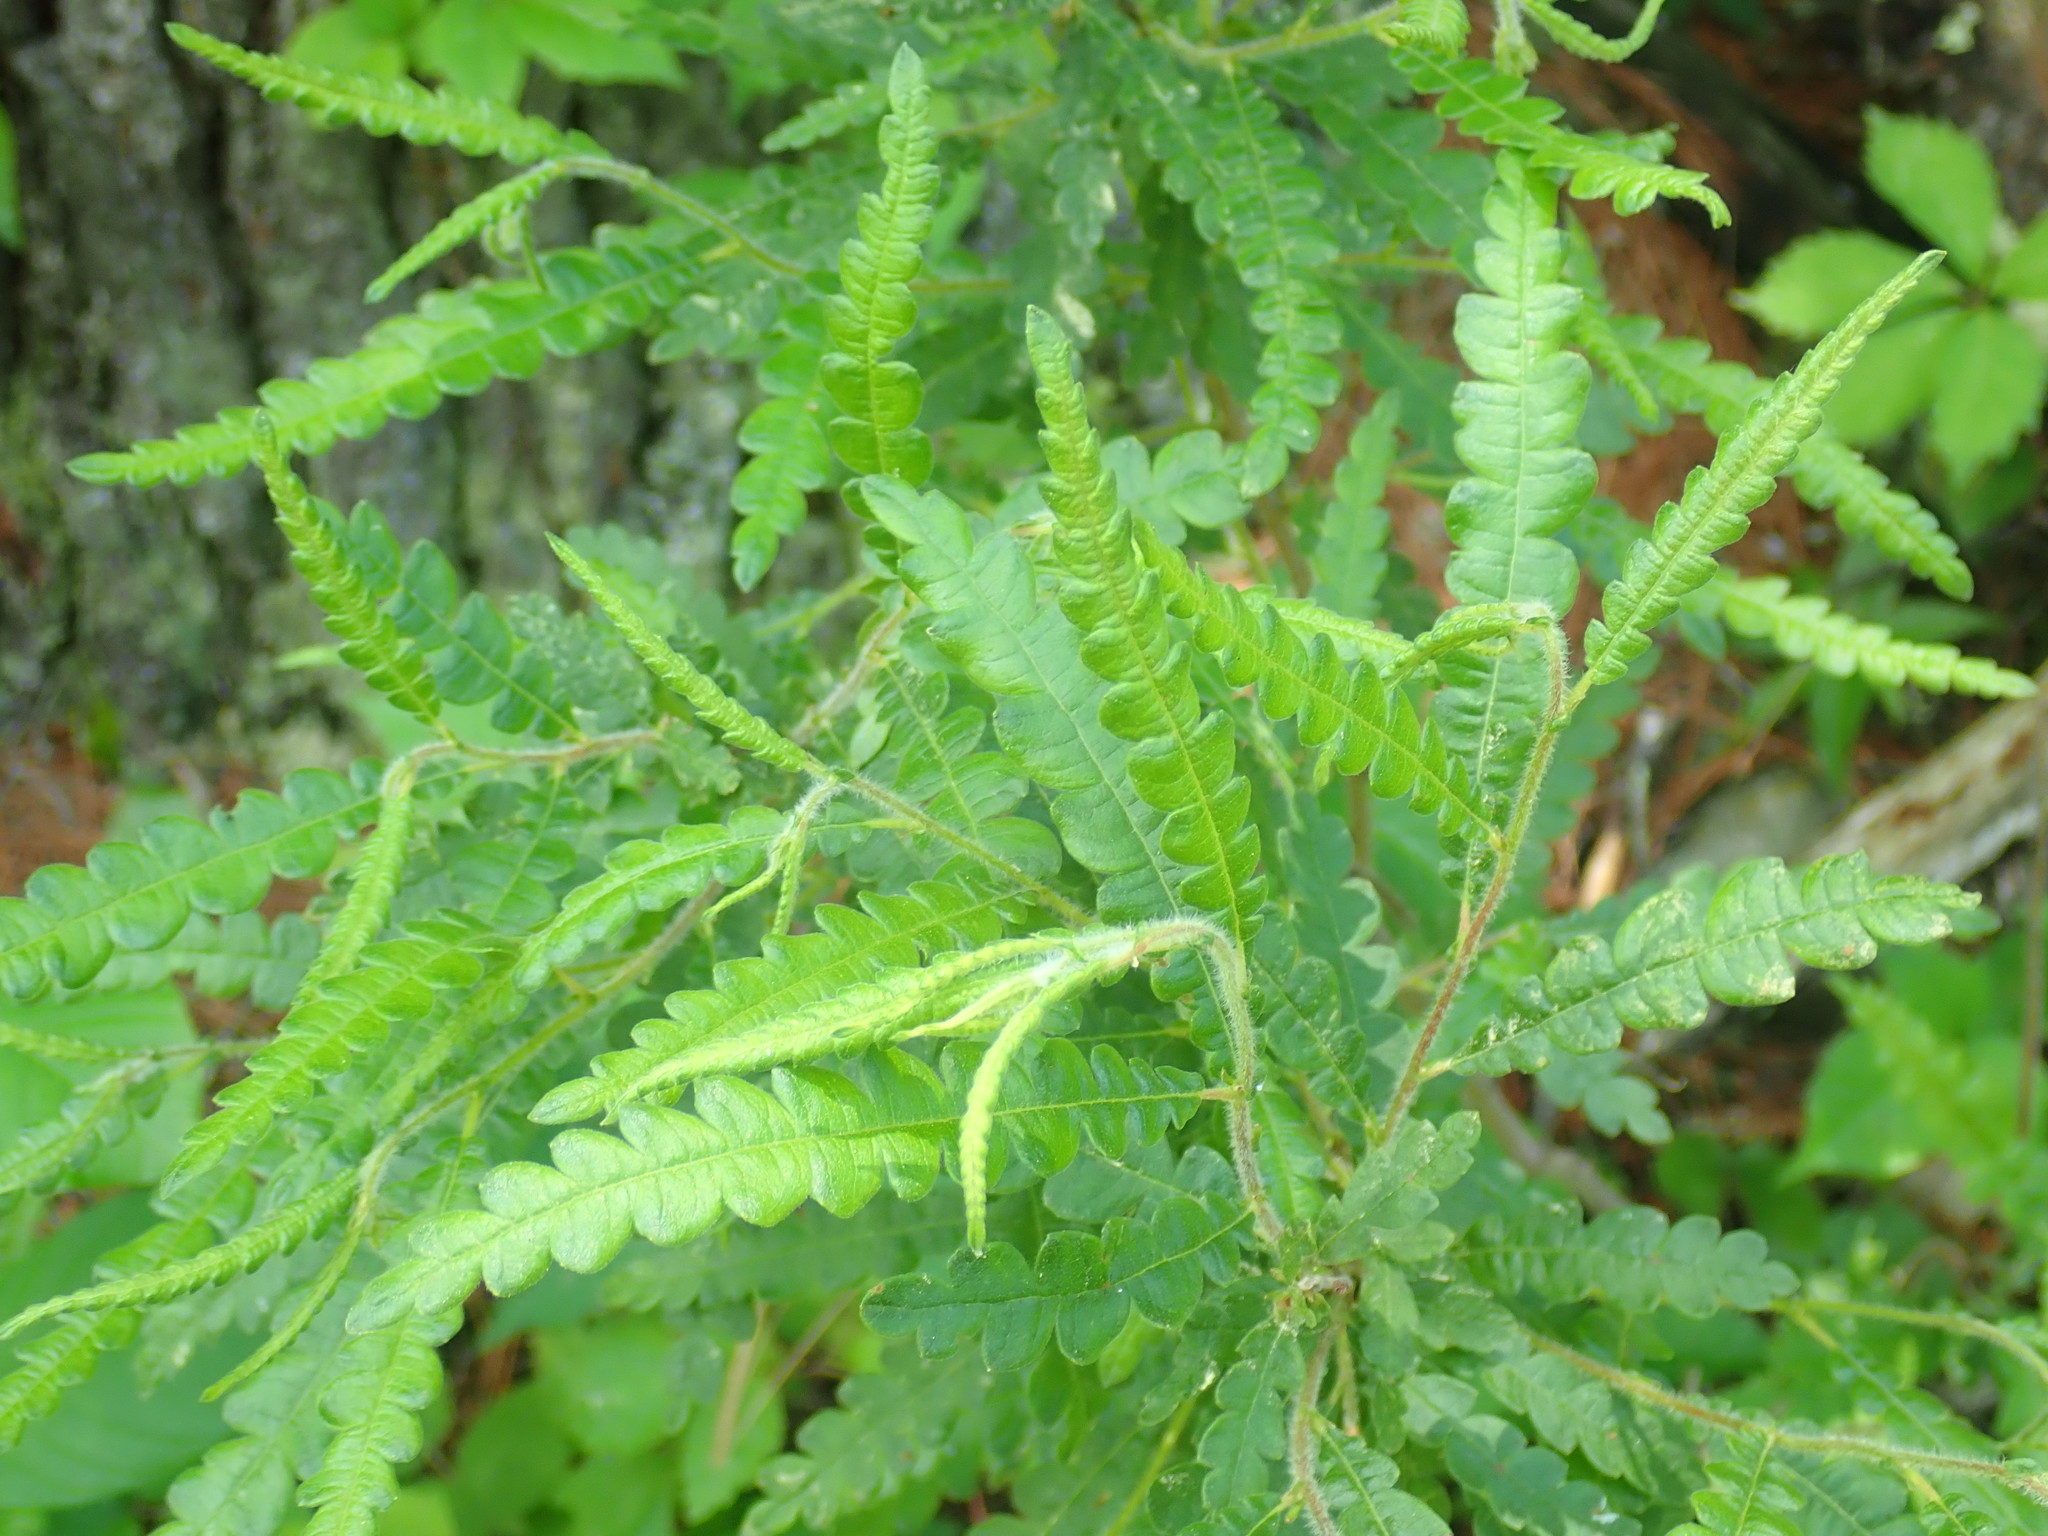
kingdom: Plantae
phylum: Tracheophyta
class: Magnoliopsida
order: Fagales
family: Myricaceae
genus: Comptonia
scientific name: Comptonia peregrina
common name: Sweet-fern
